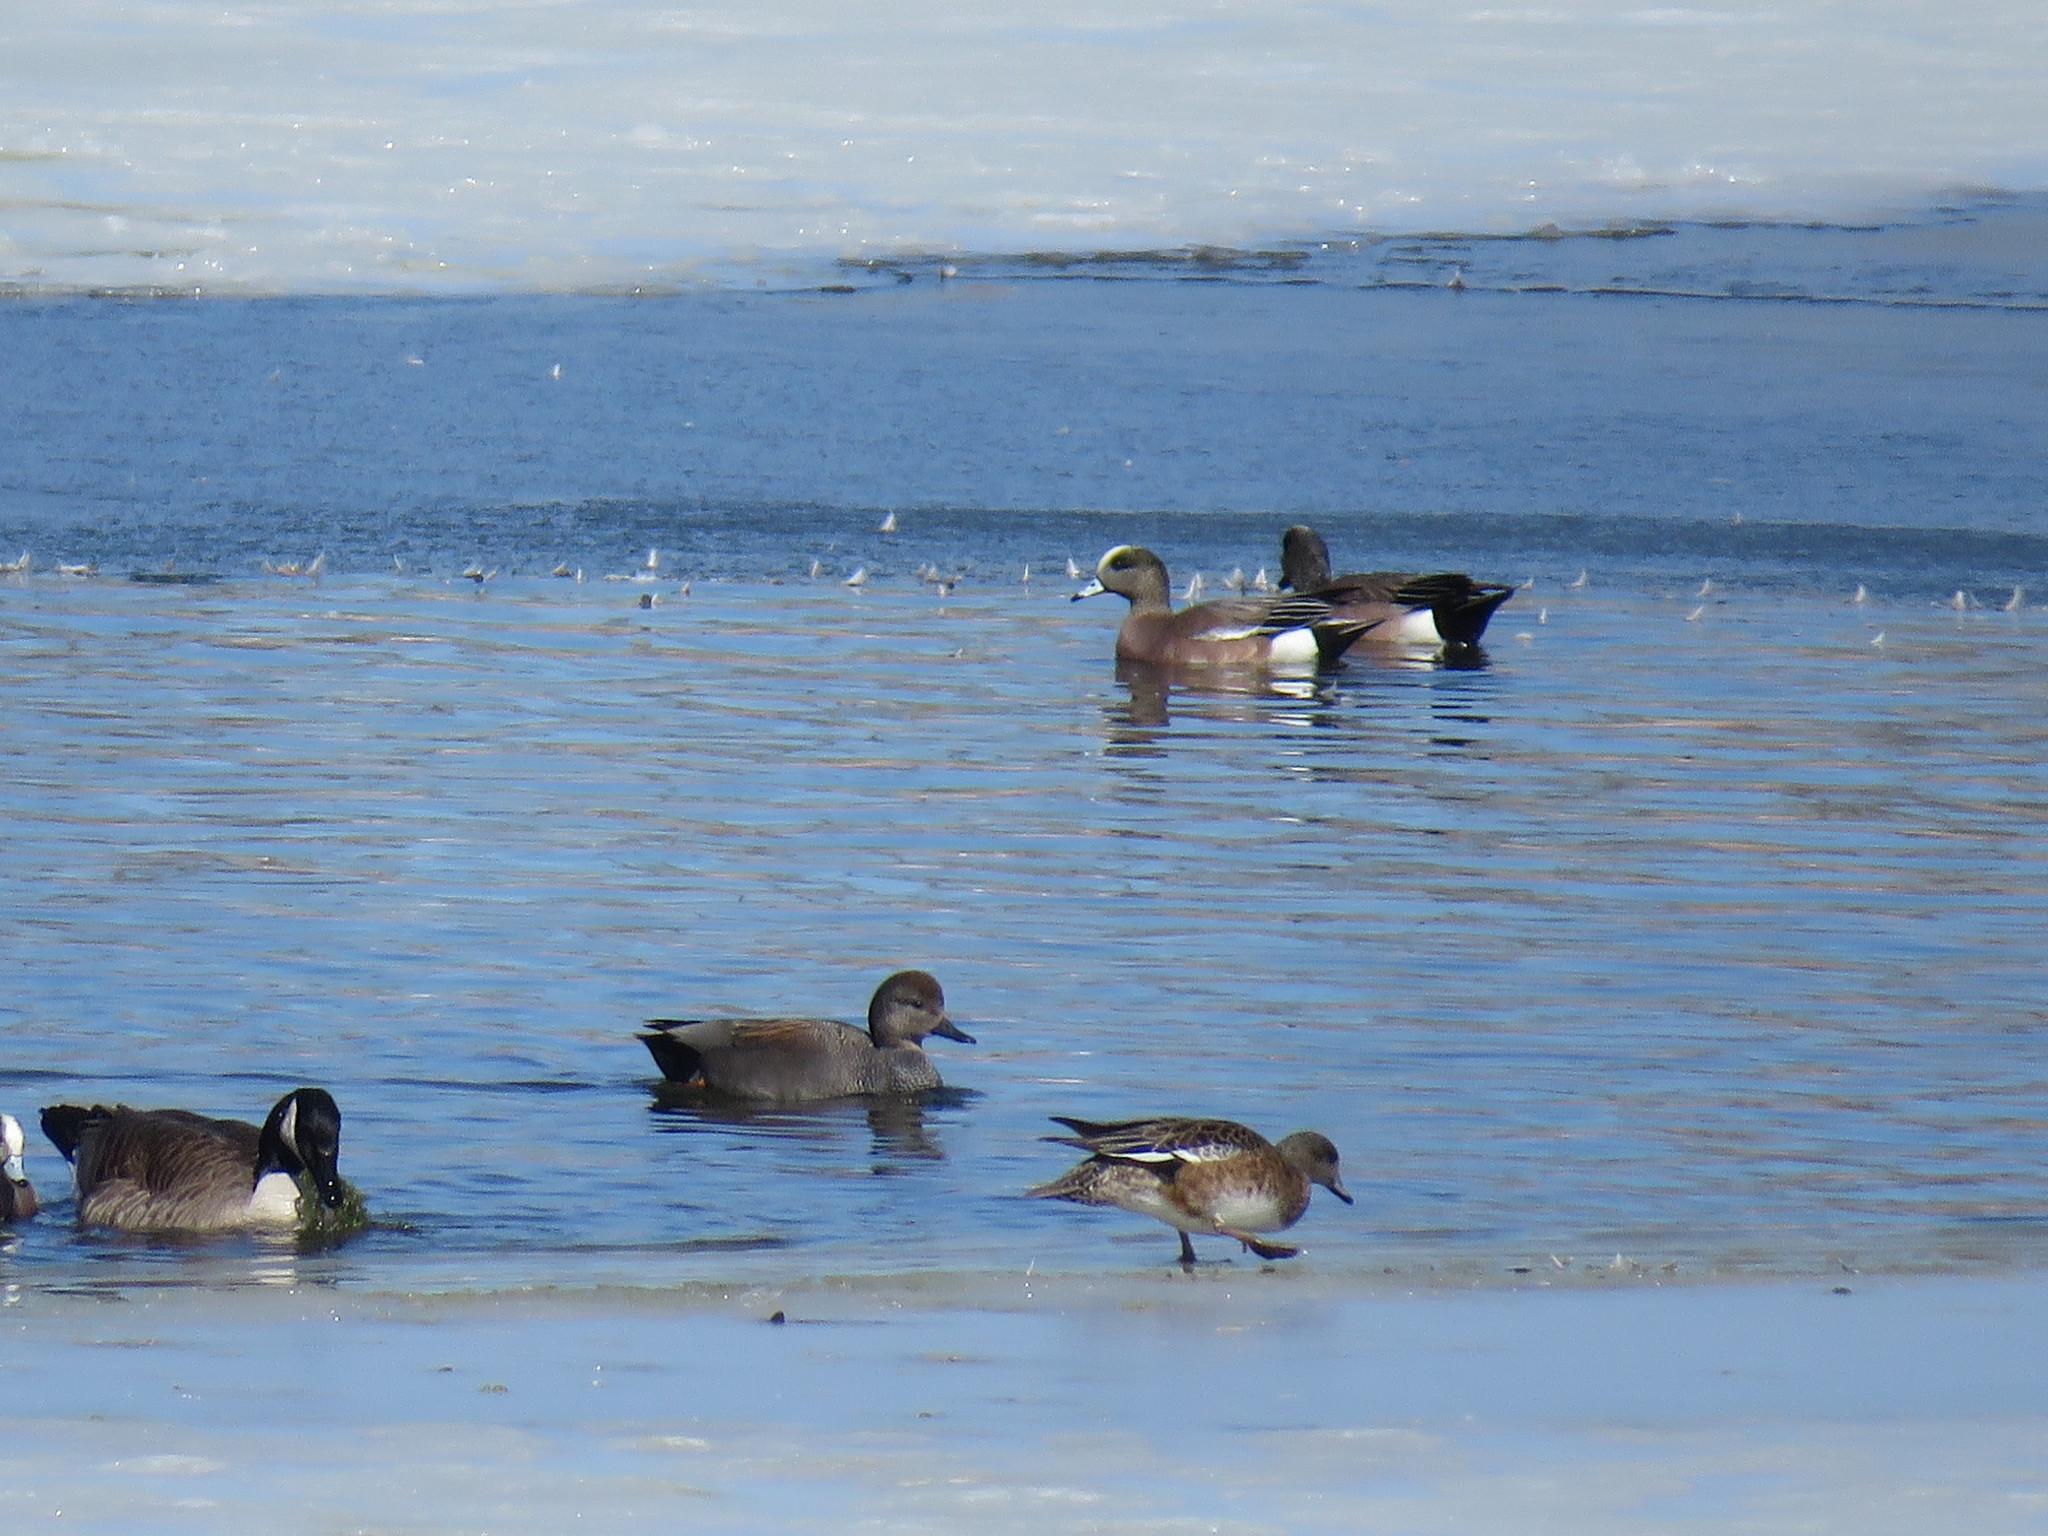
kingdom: Animalia
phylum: Chordata
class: Aves
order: Anseriformes
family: Anatidae
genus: Mareca
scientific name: Mareca strepera
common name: Gadwall
